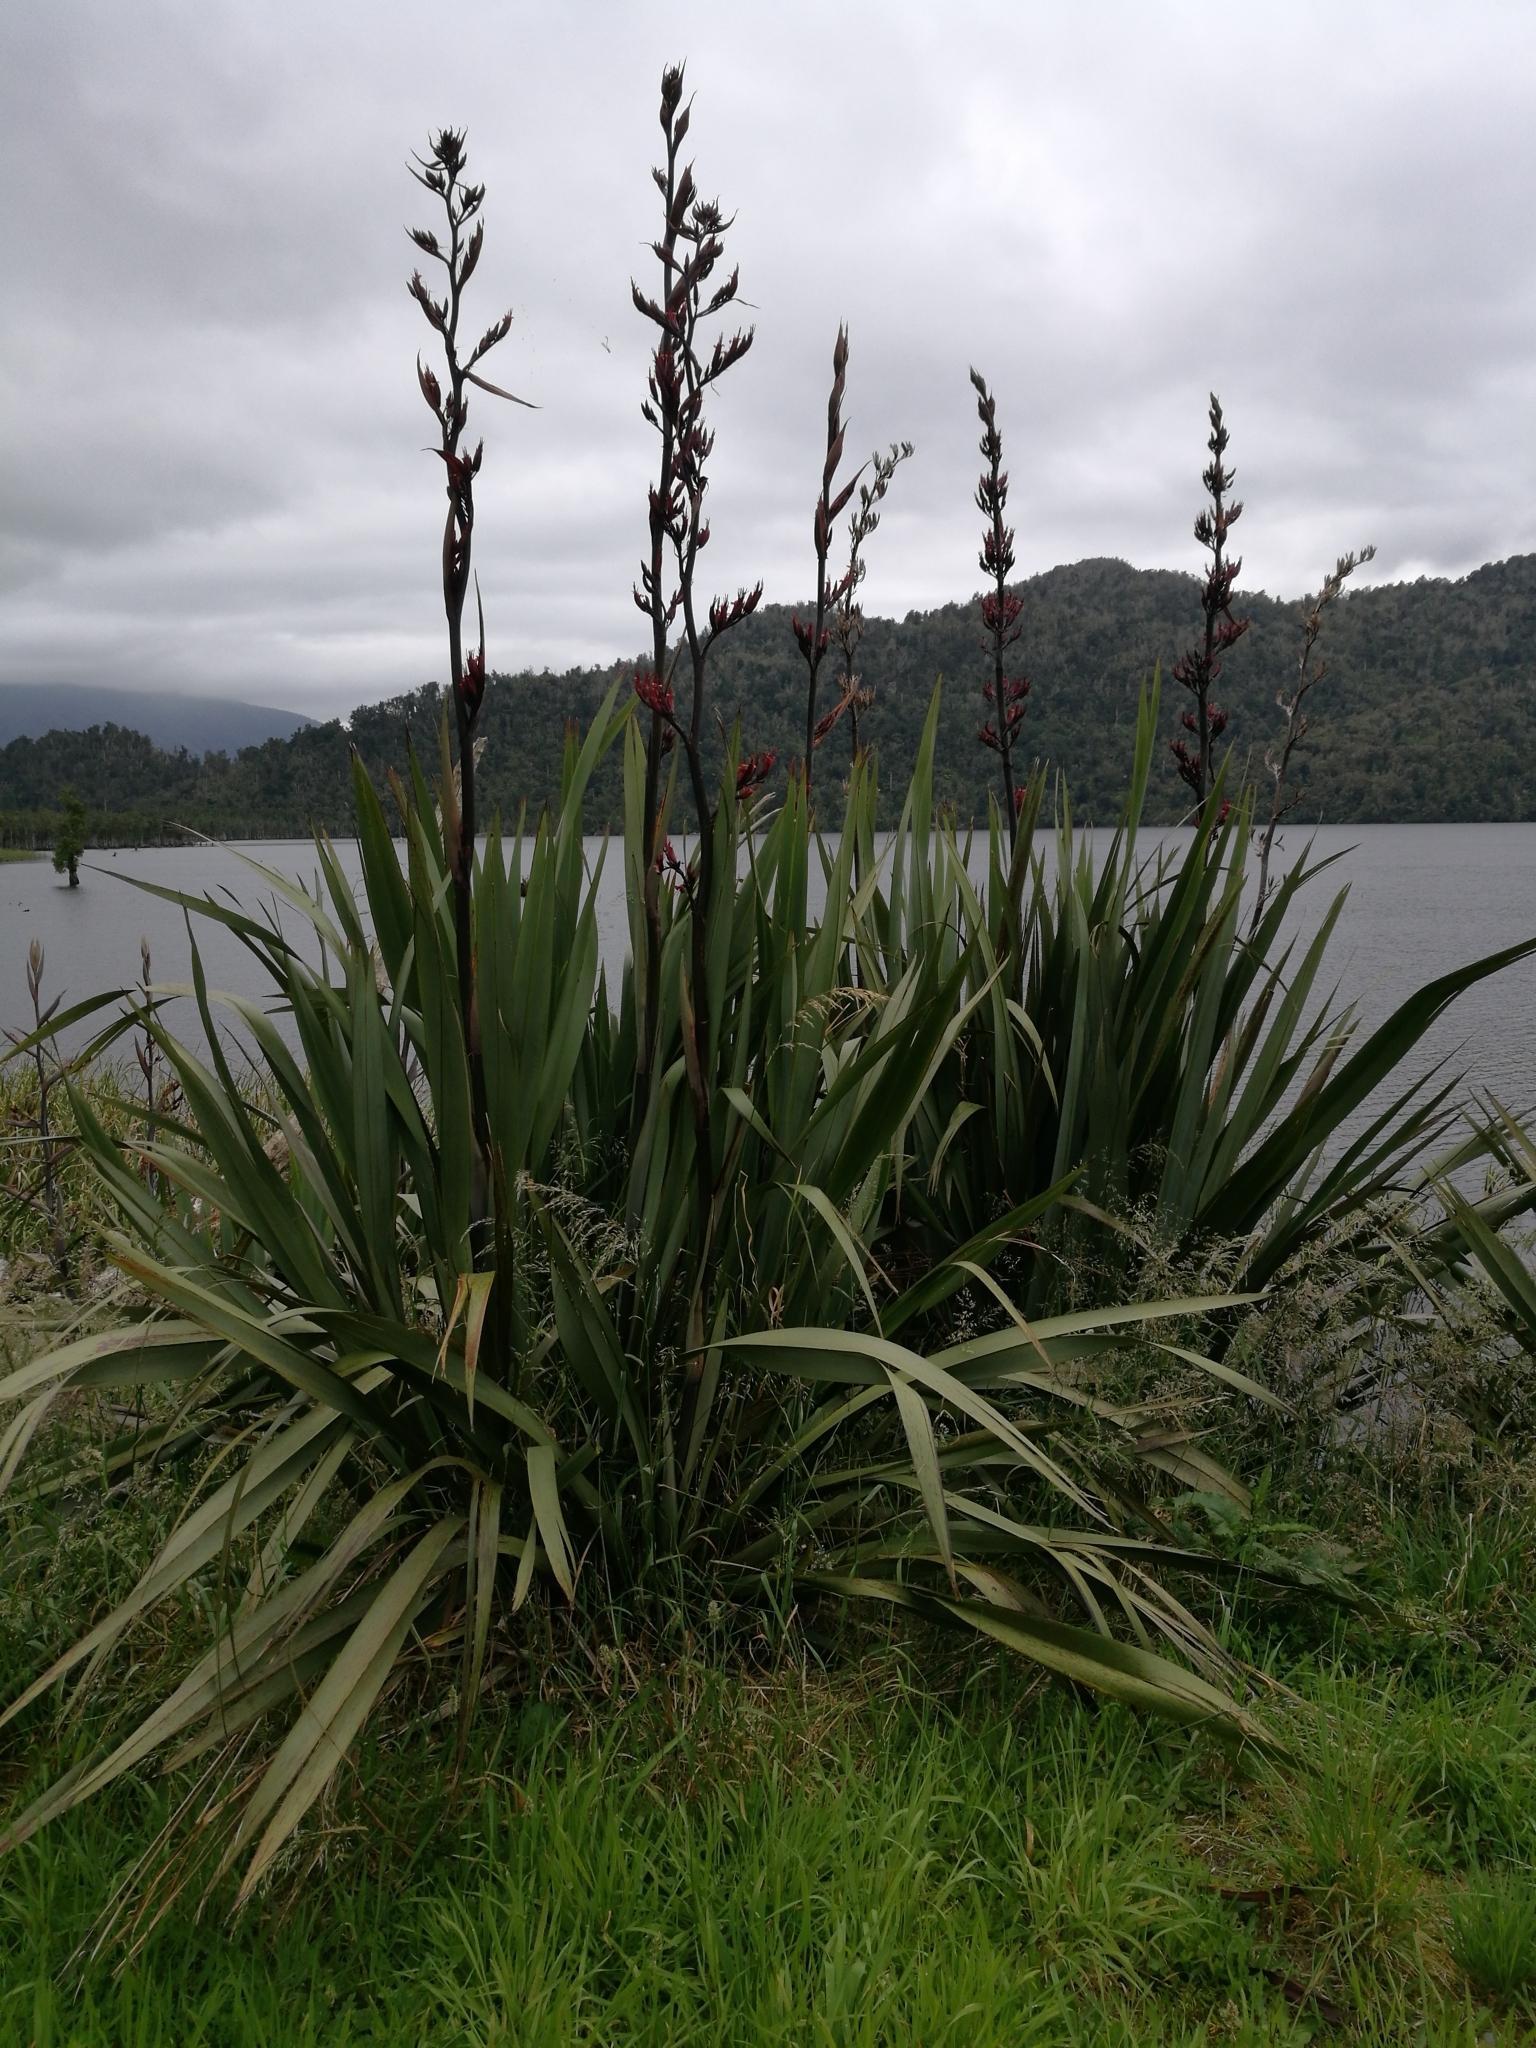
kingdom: Plantae
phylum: Tracheophyta
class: Liliopsida
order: Asparagales
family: Asphodelaceae
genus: Phormium
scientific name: Phormium tenax
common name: New zealand flax
